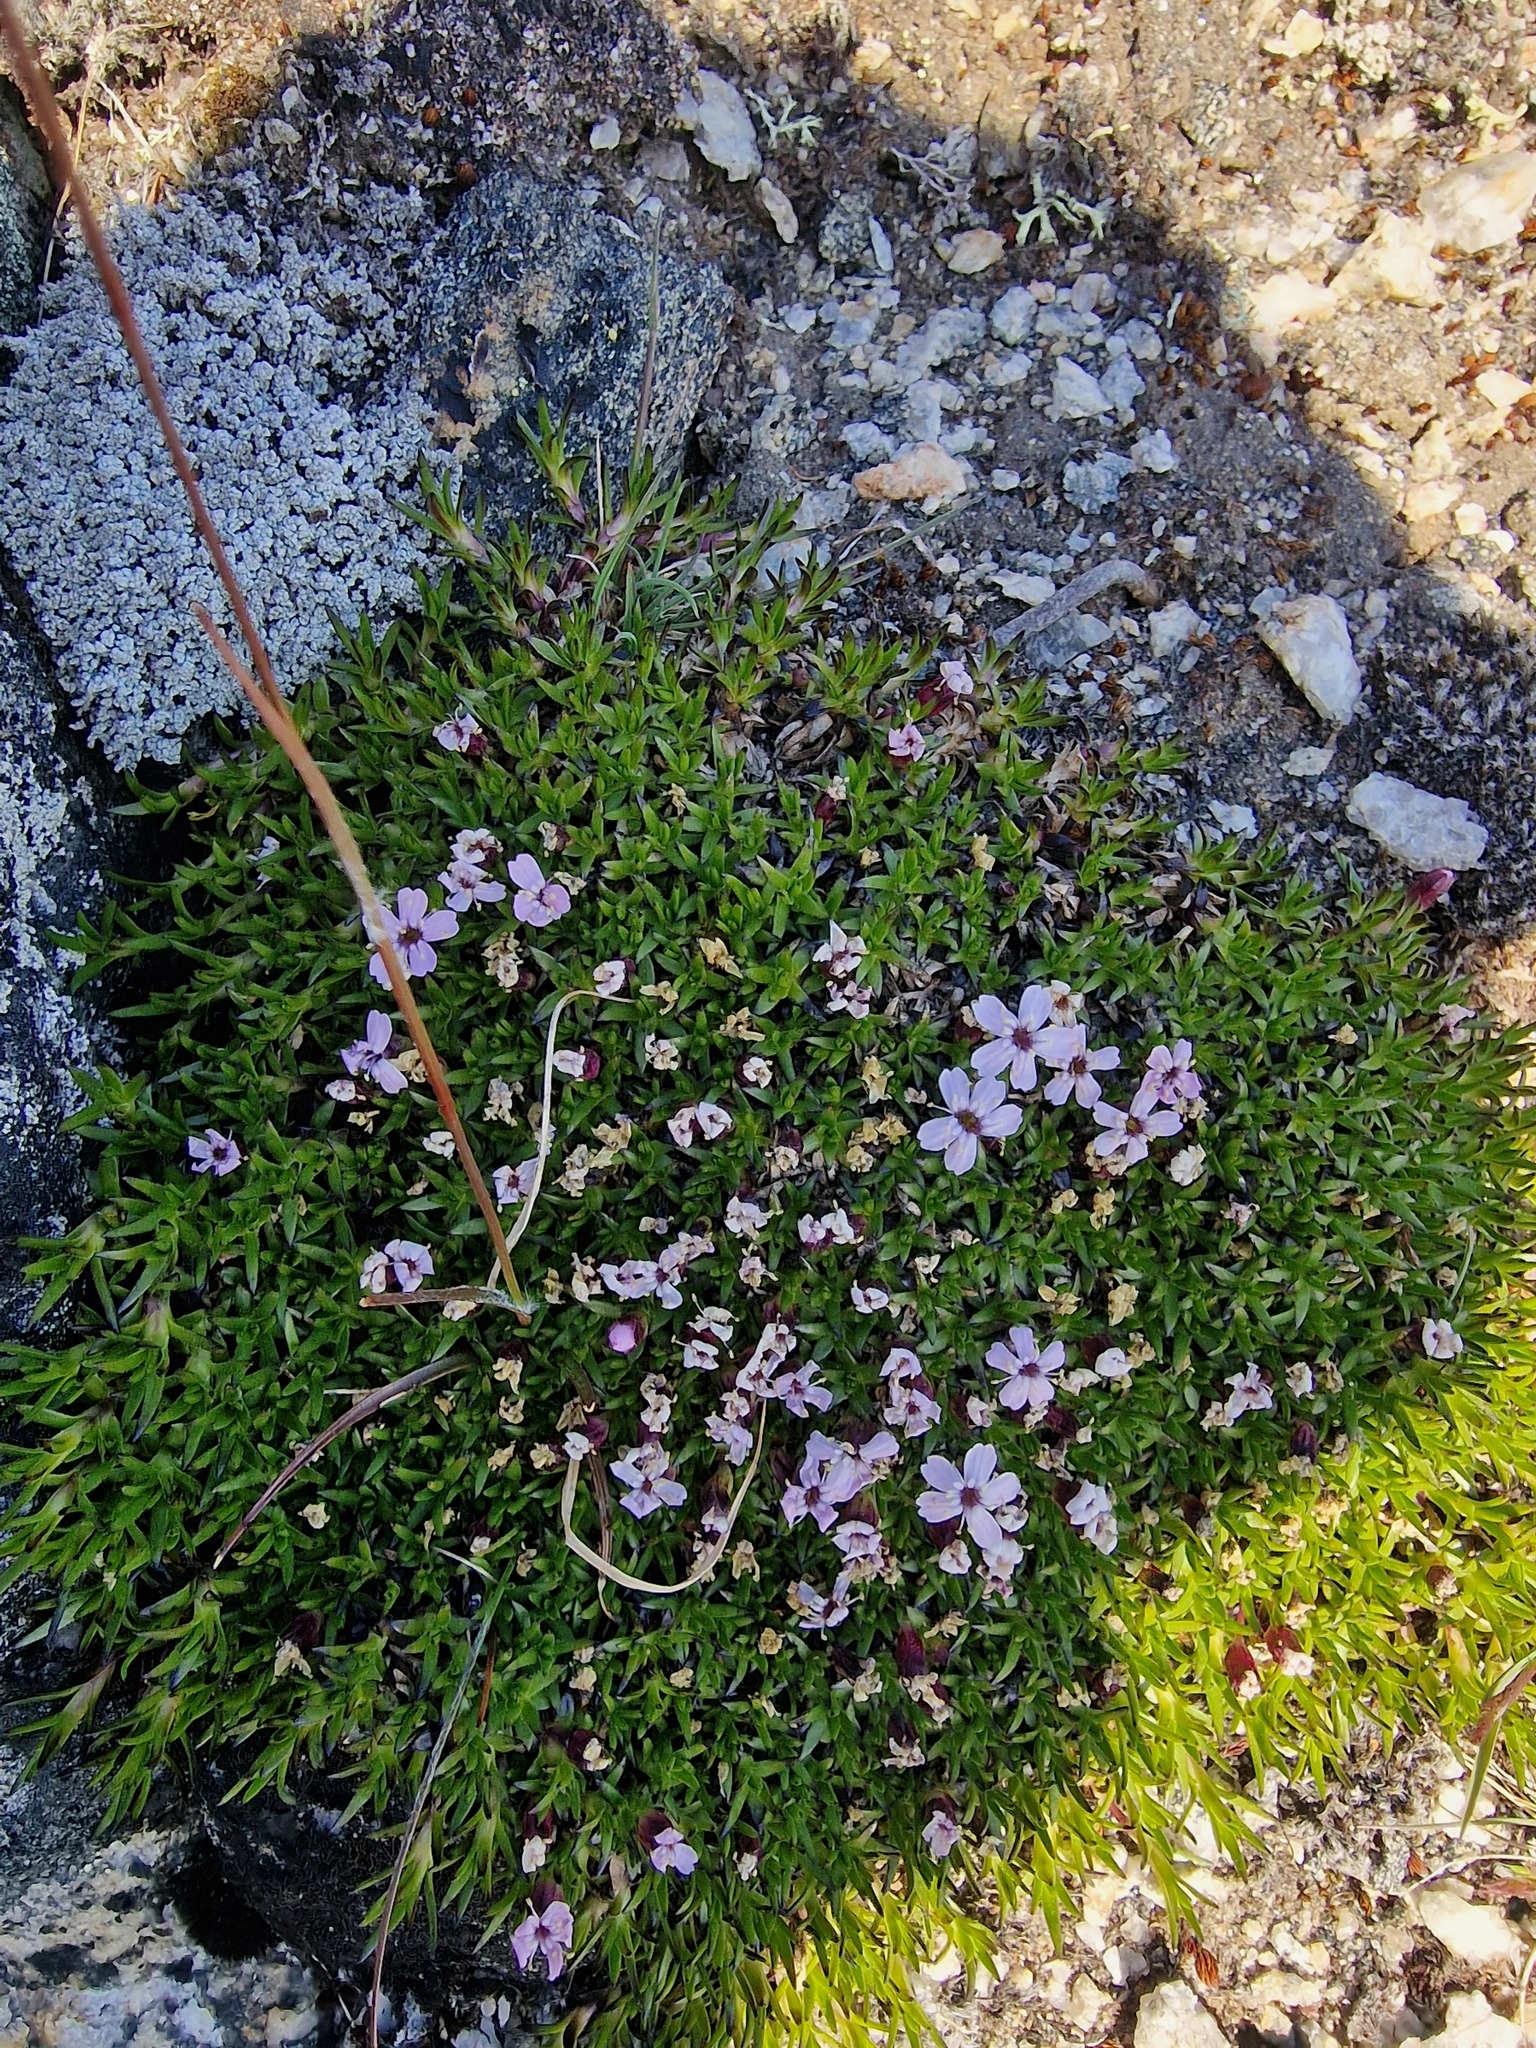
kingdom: Plantae
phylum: Tracheophyta
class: Magnoliopsida
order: Caryophyllales
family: Caryophyllaceae
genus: Silene
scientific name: Silene acaulis
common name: Moss campion
